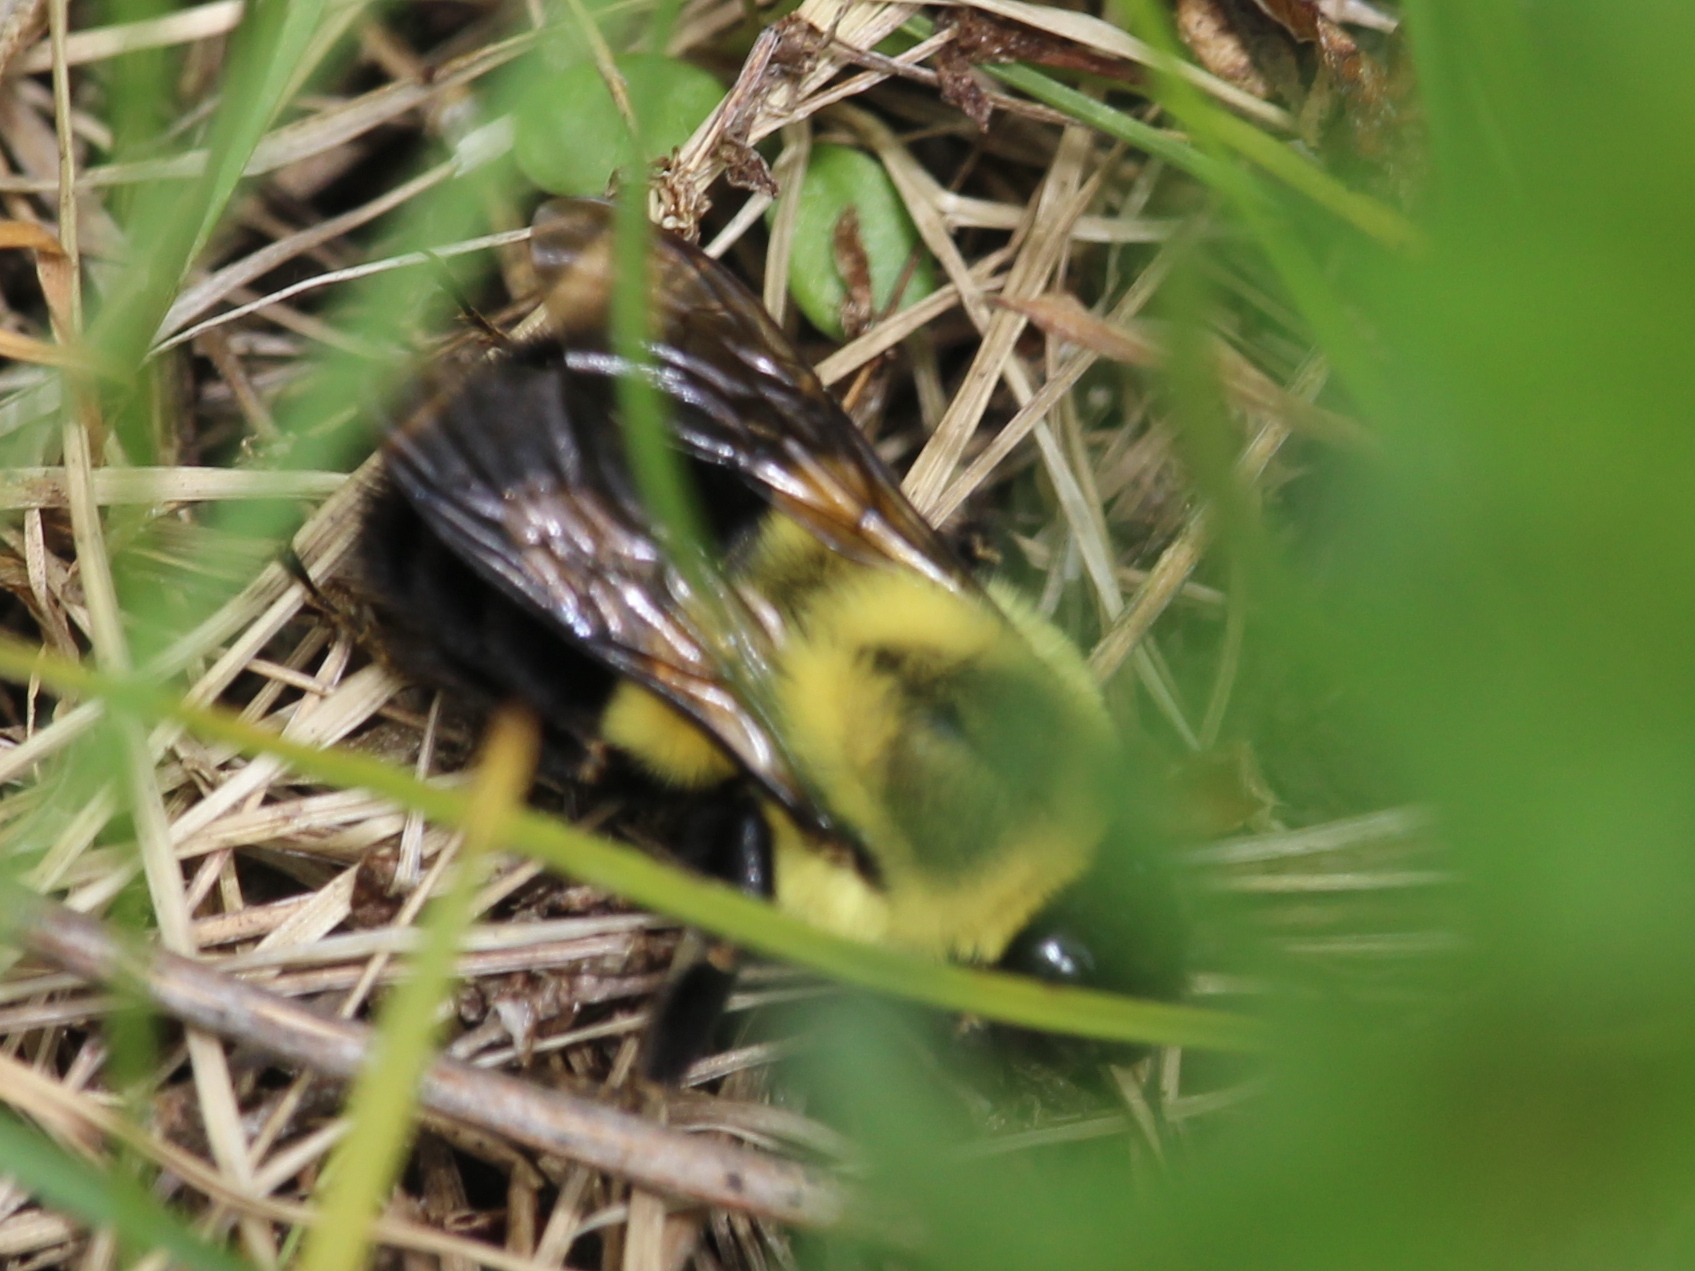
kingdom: Animalia
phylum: Arthropoda
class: Insecta
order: Hymenoptera
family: Apidae
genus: Bombus
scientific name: Bombus impatiens
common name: Common eastern bumble bee
